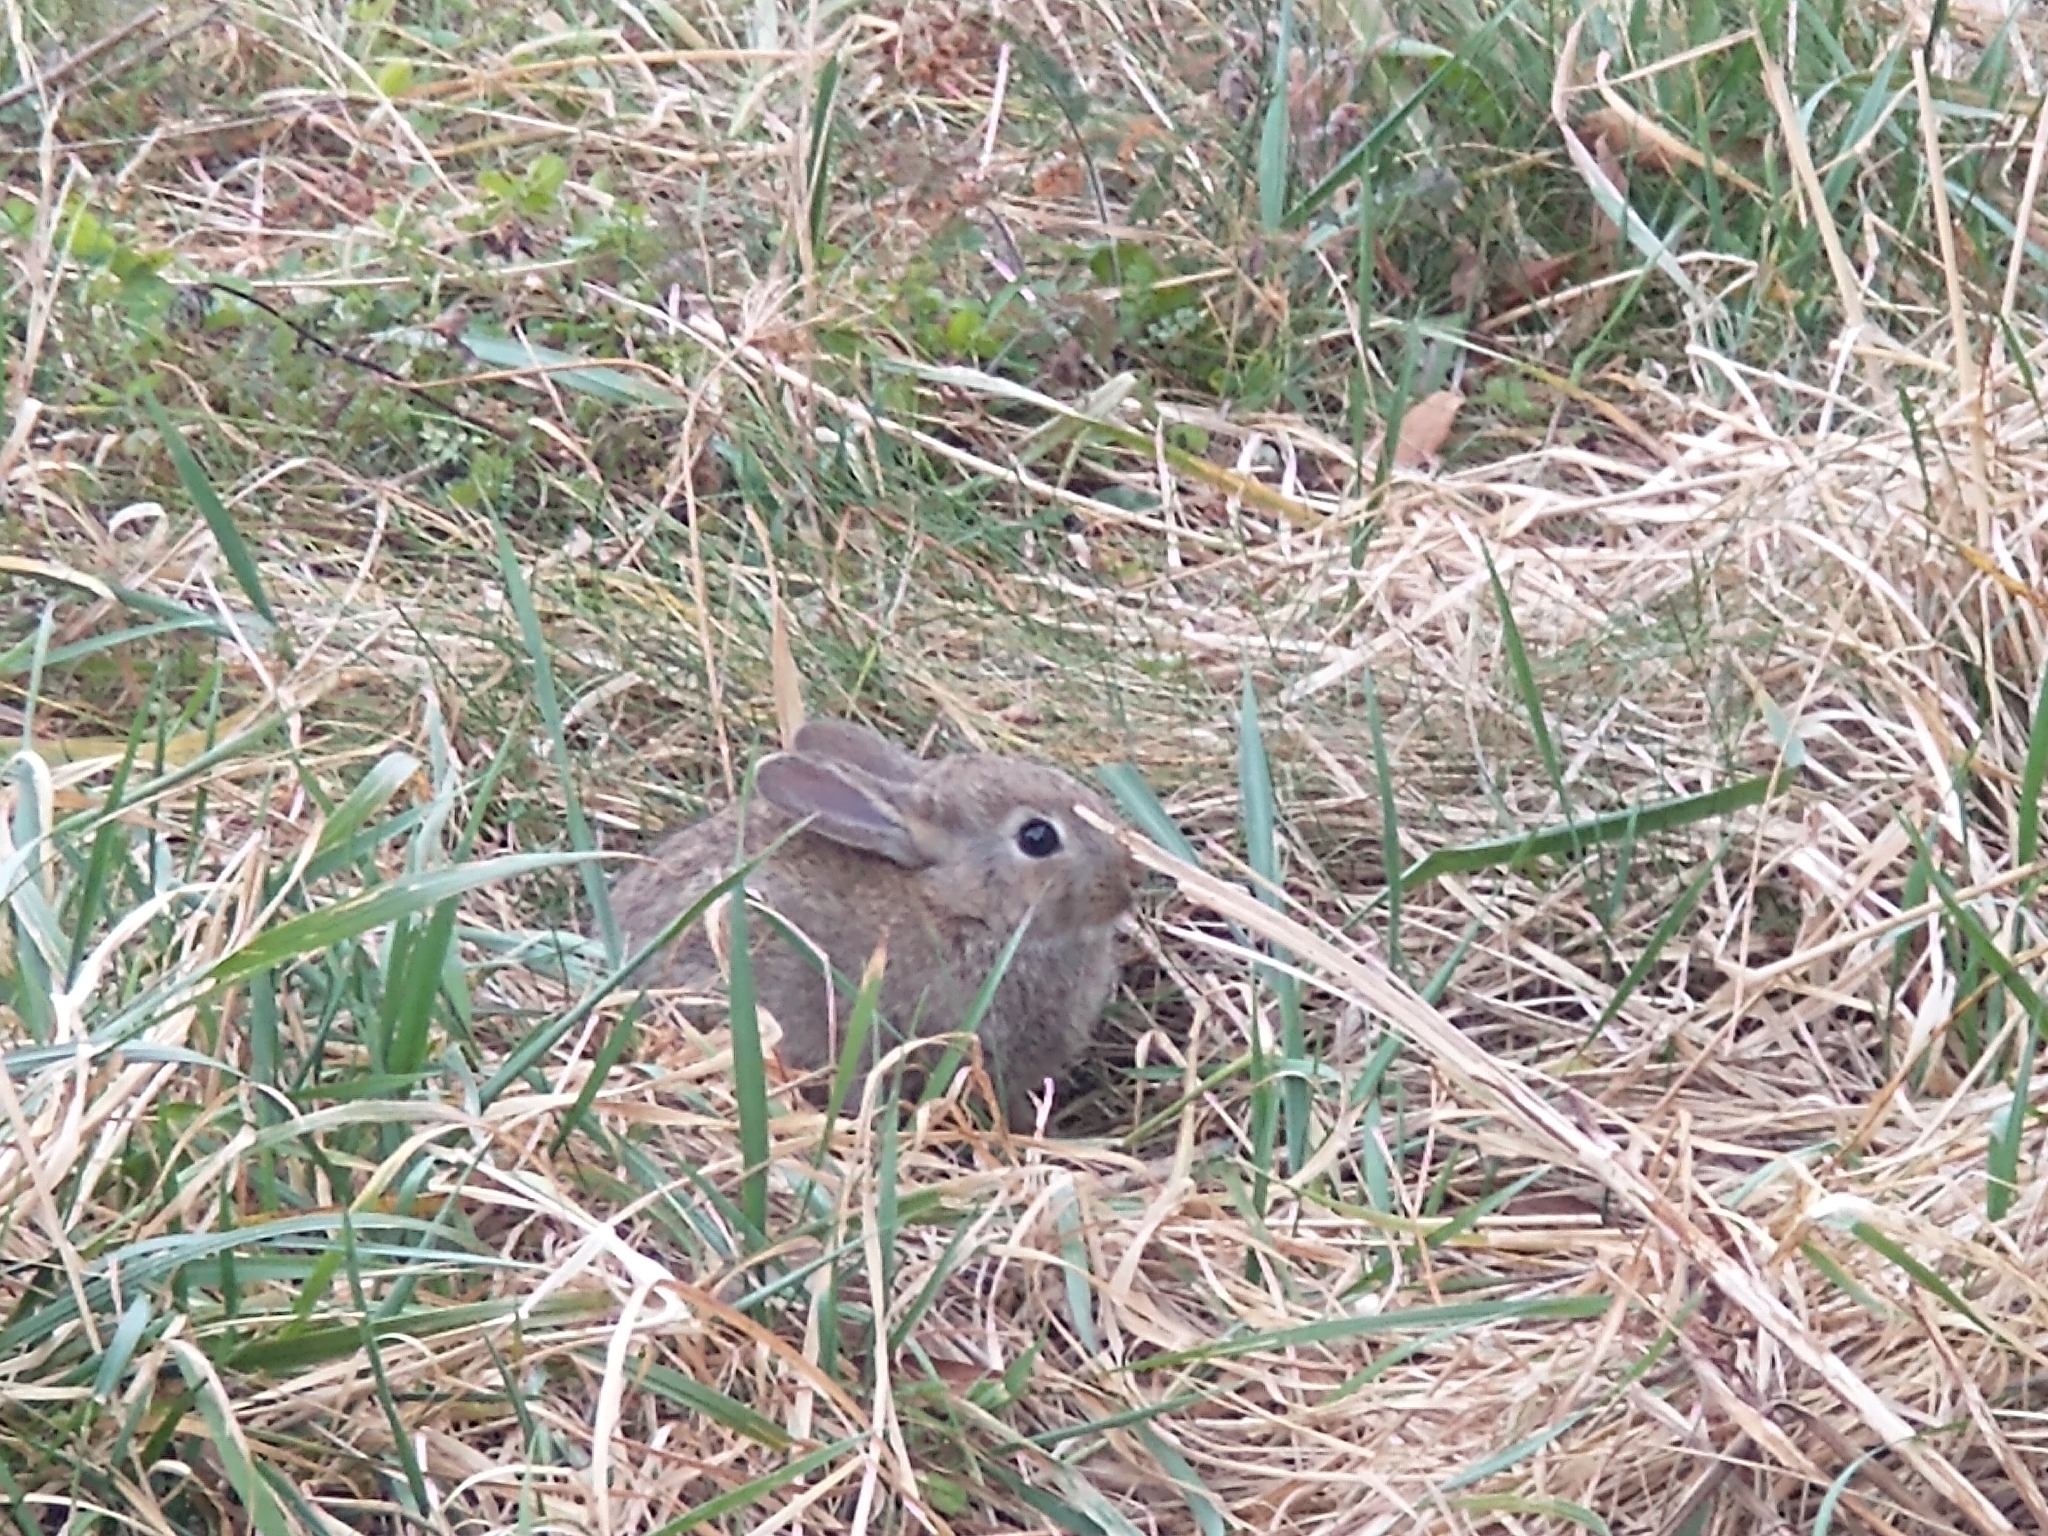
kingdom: Animalia
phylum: Chordata
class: Mammalia
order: Lagomorpha
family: Leporidae
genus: Oryctolagus
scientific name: Oryctolagus cuniculus
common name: European rabbit
